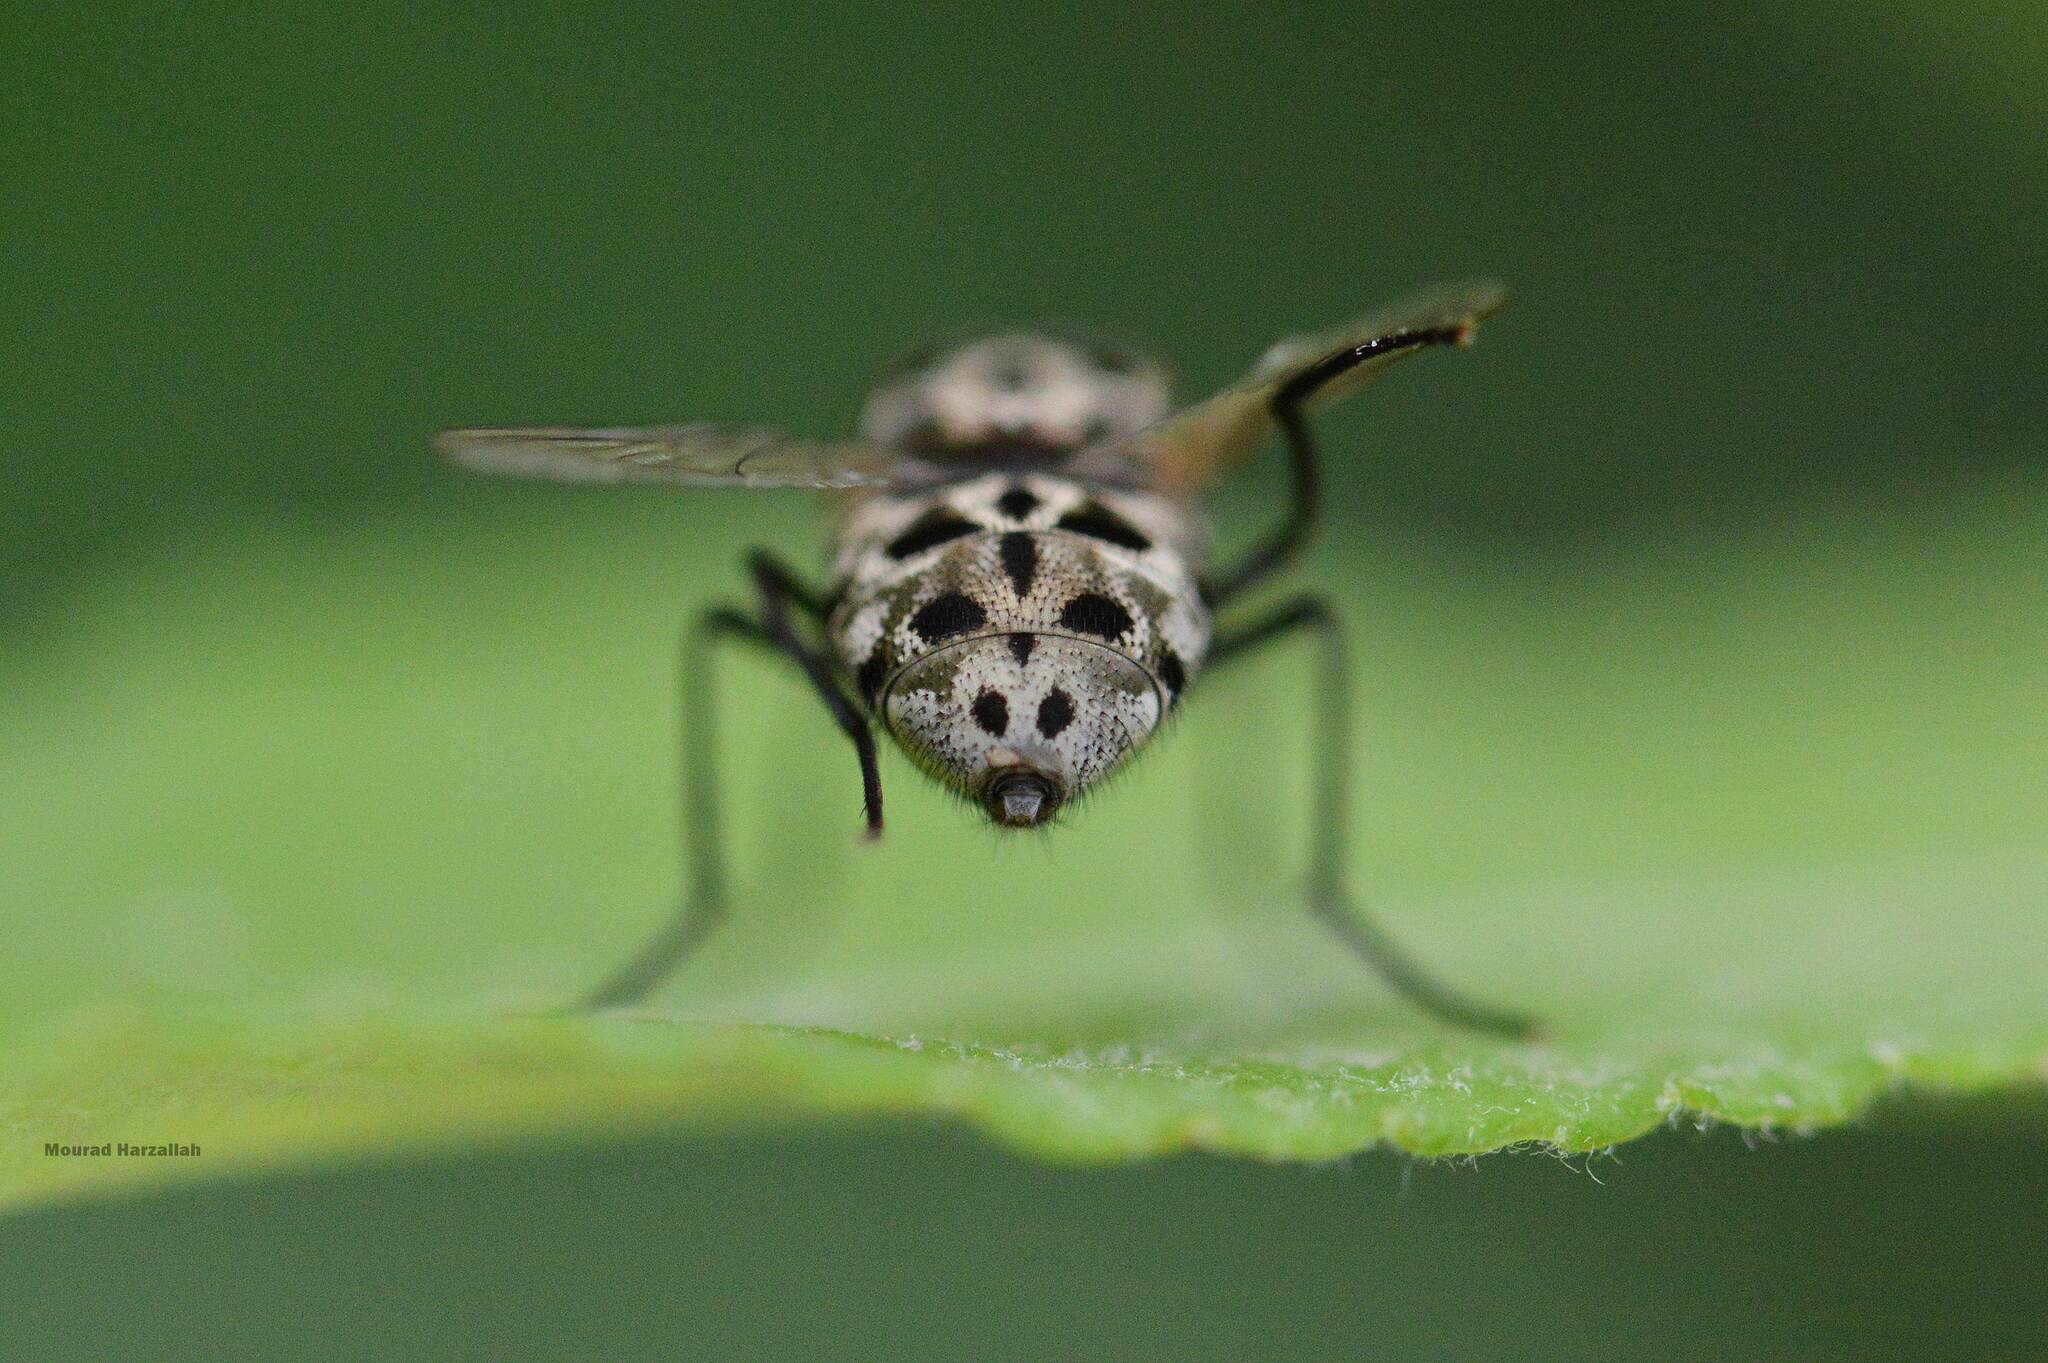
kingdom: Animalia
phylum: Arthropoda
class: Insecta
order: Diptera
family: Muscidae
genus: Graphomya
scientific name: Graphomya maculata
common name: Muscid fly
